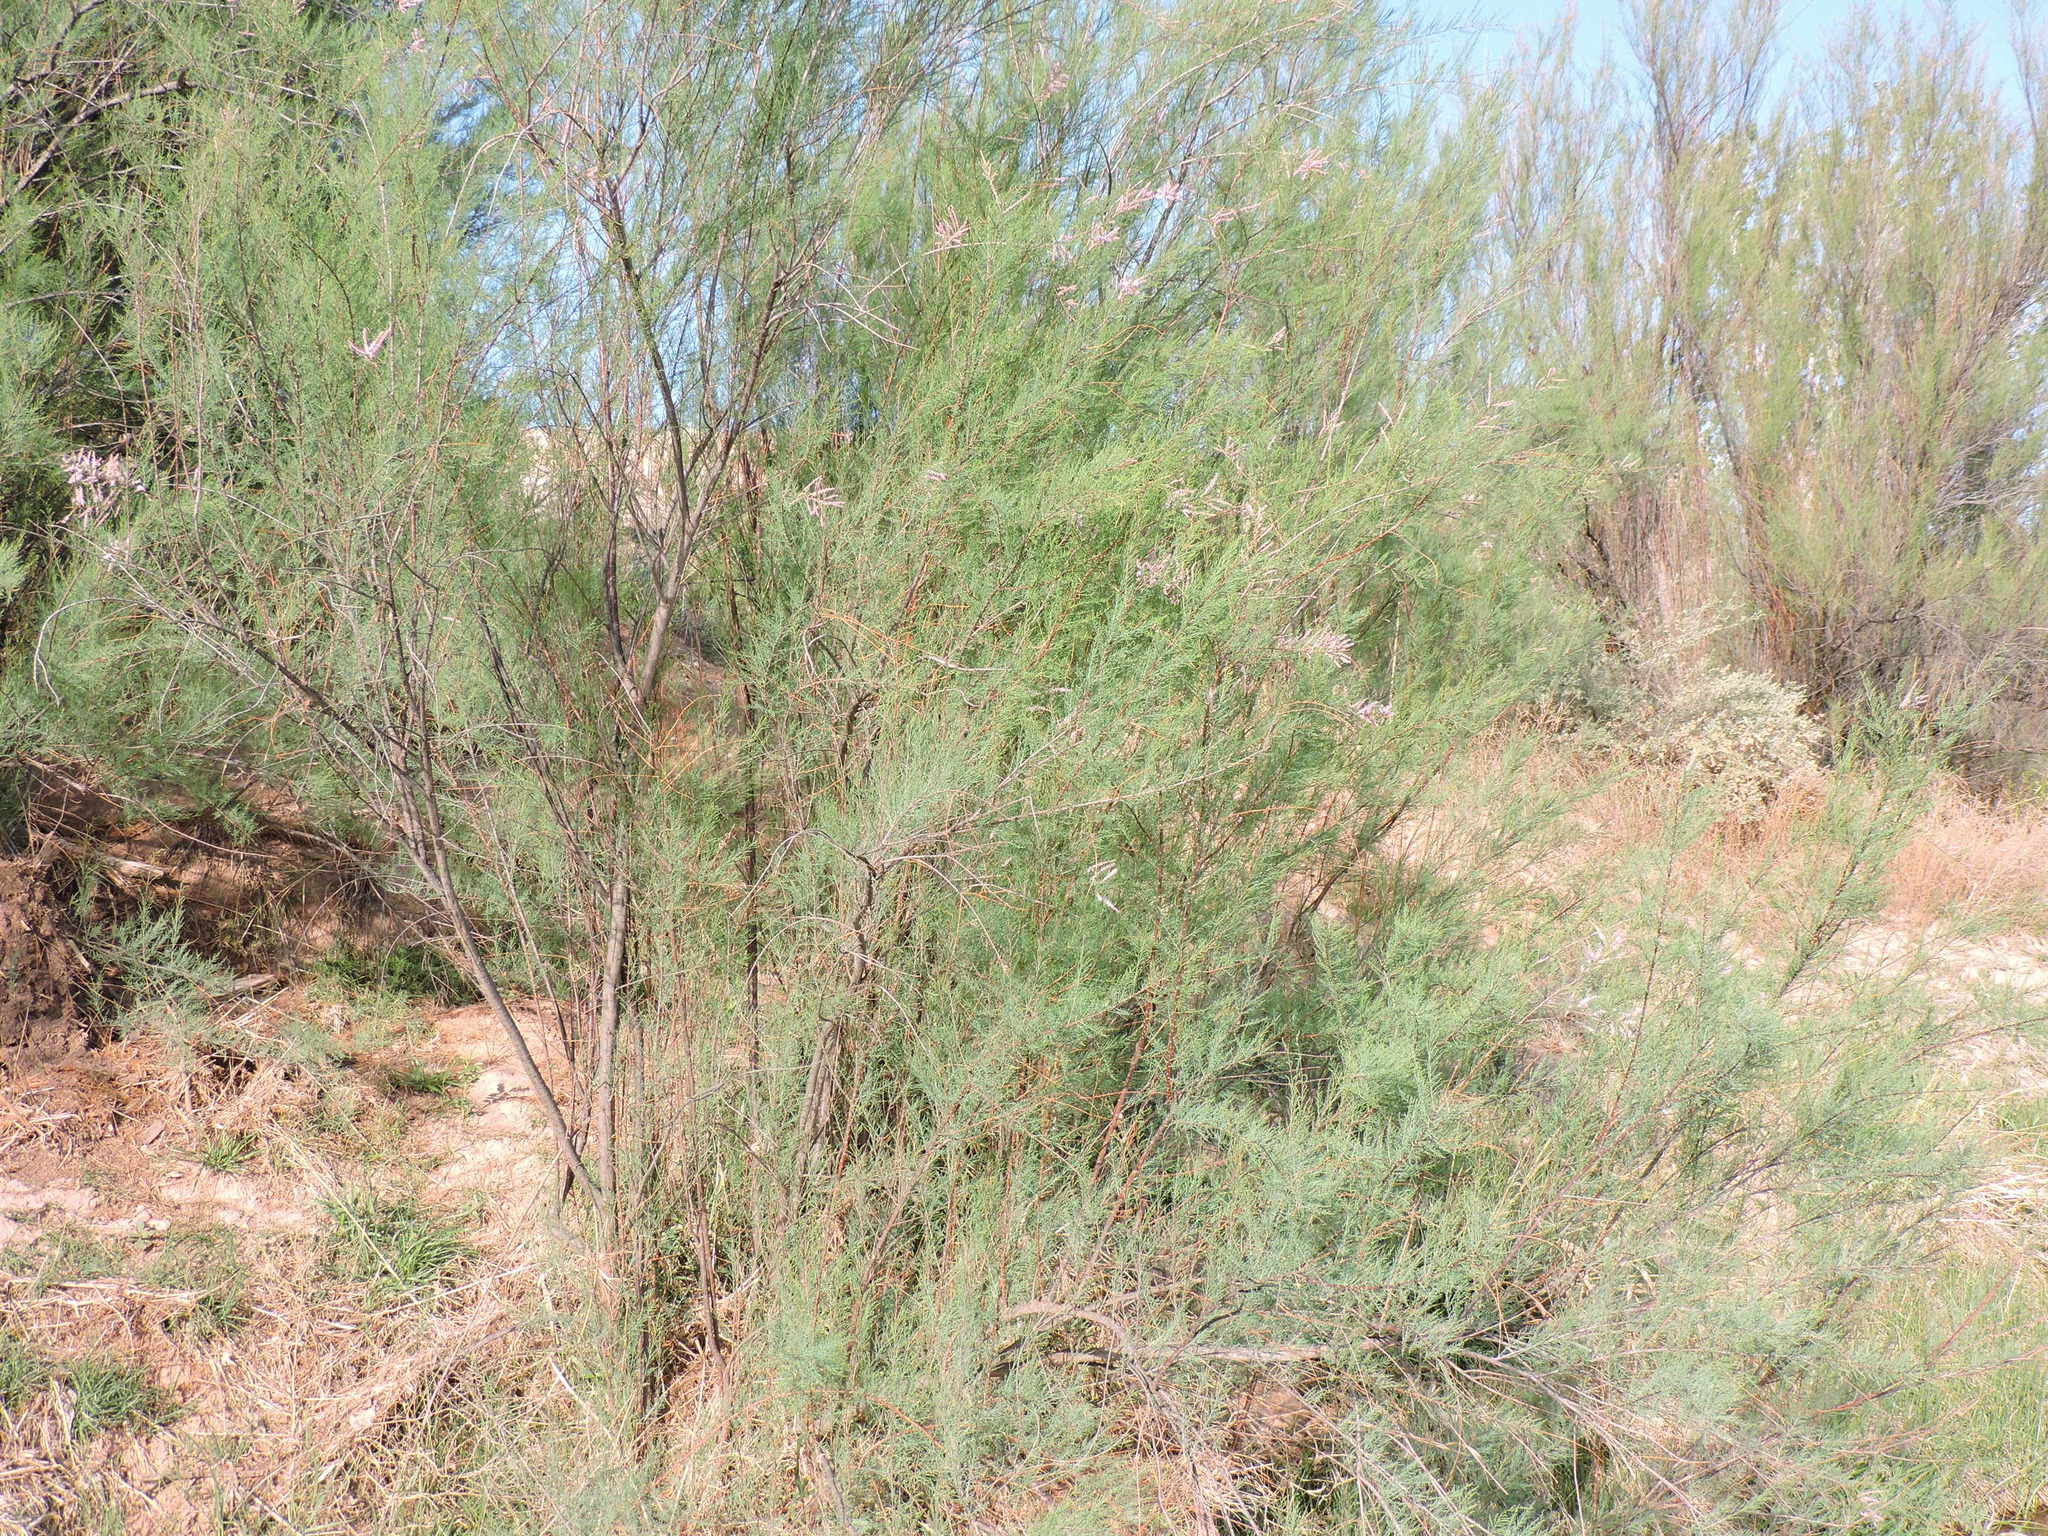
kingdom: Plantae
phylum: Tracheophyta
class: Magnoliopsida
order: Caryophyllales
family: Tamaricaceae
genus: Tamarix
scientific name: Tamarix
